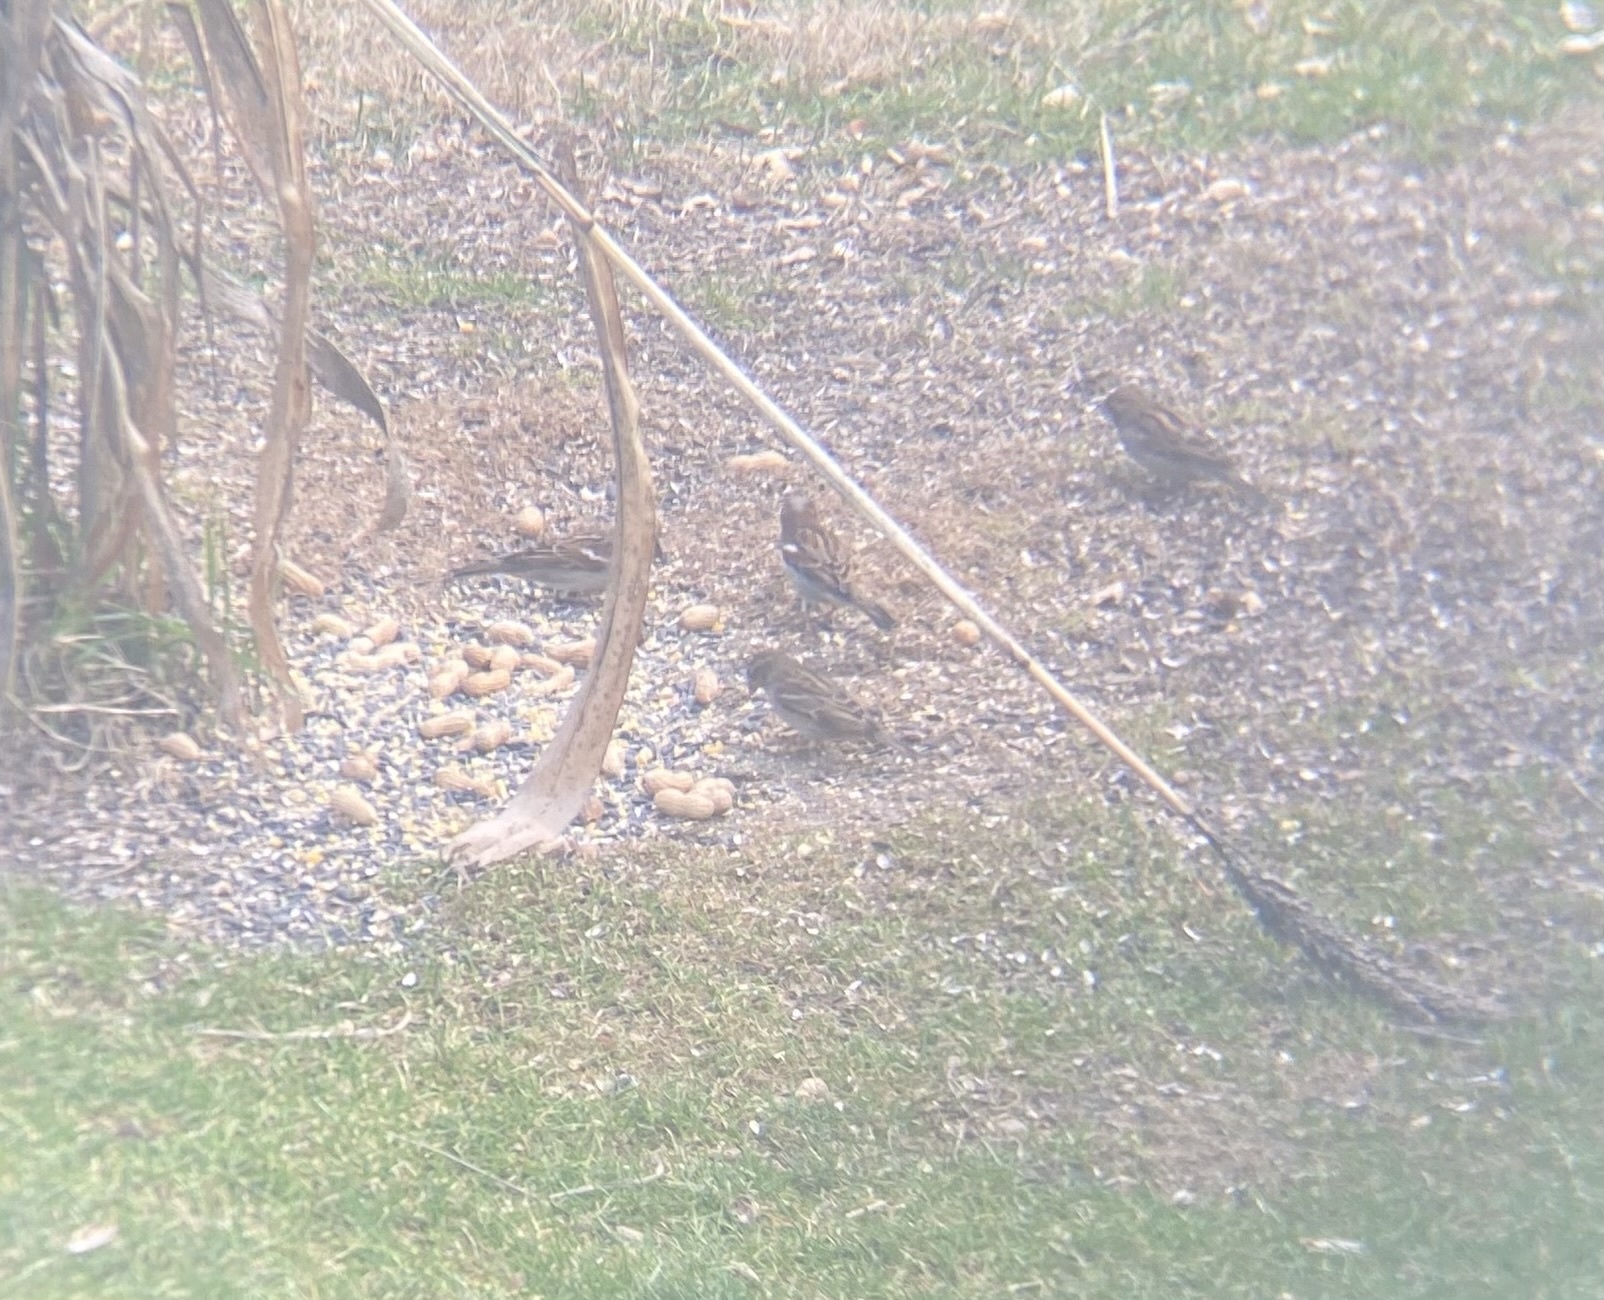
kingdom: Animalia
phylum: Chordata
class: Aves
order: Passeriformes
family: Passeridae
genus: Passer
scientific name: Passer domesticus
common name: House sparrow
